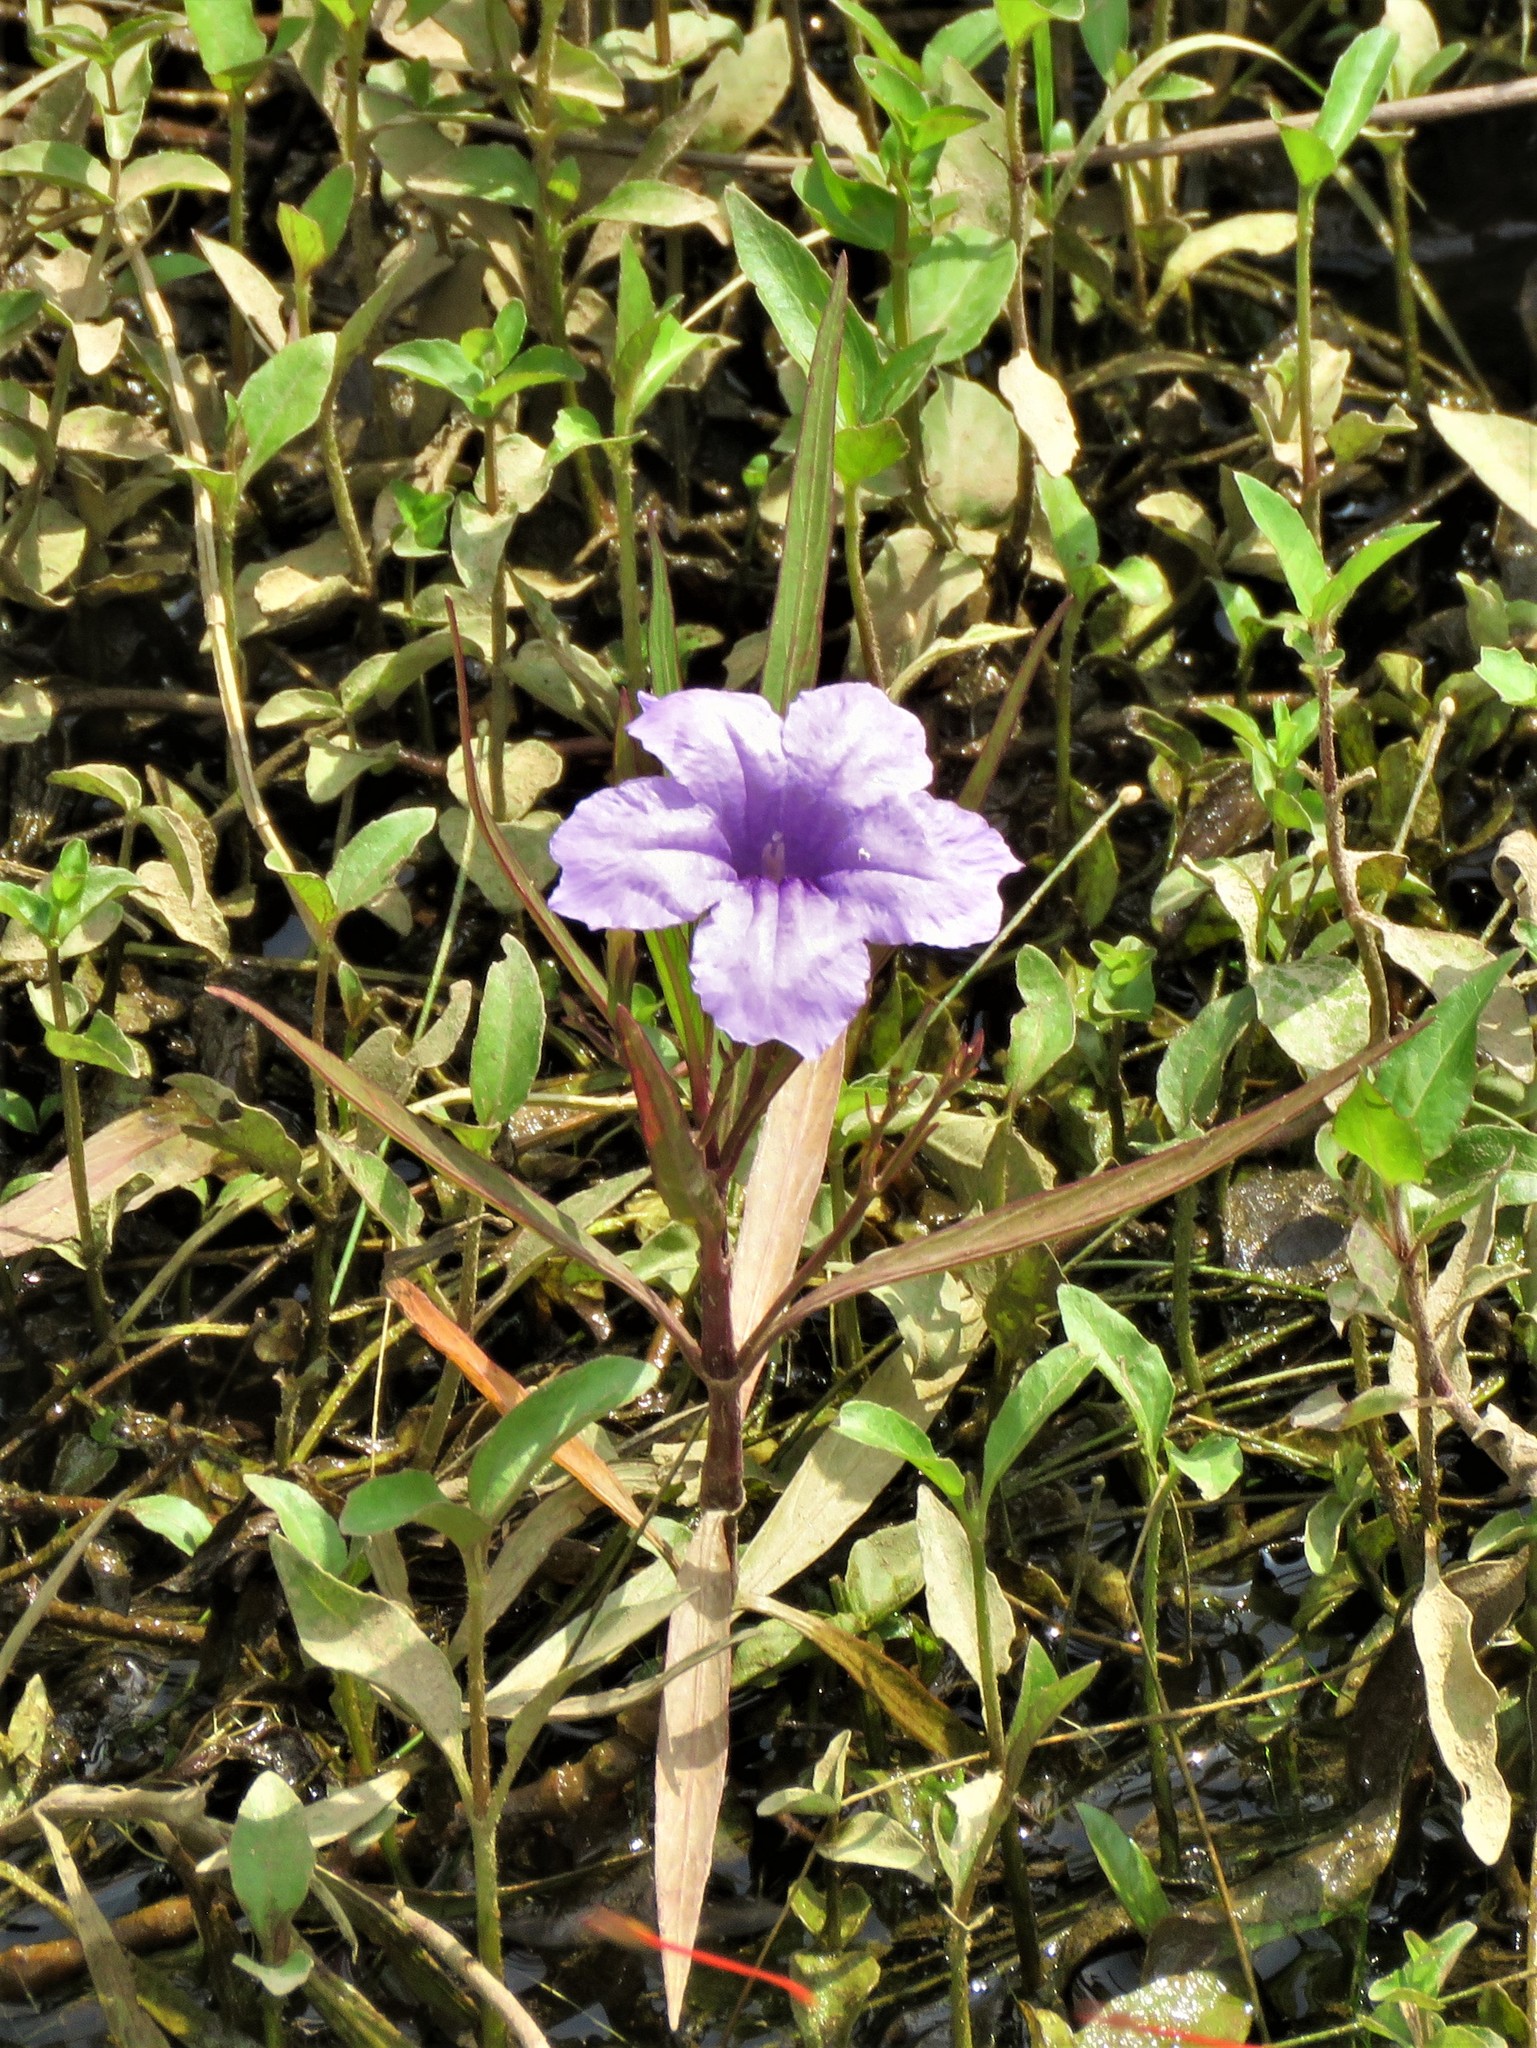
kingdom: Plantae
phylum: Tracheophyta
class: Magnoliopsida
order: Lamiales
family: Acanthaceae
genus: Ruellia
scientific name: Ruellia simplex
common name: Softseed wild petunia
